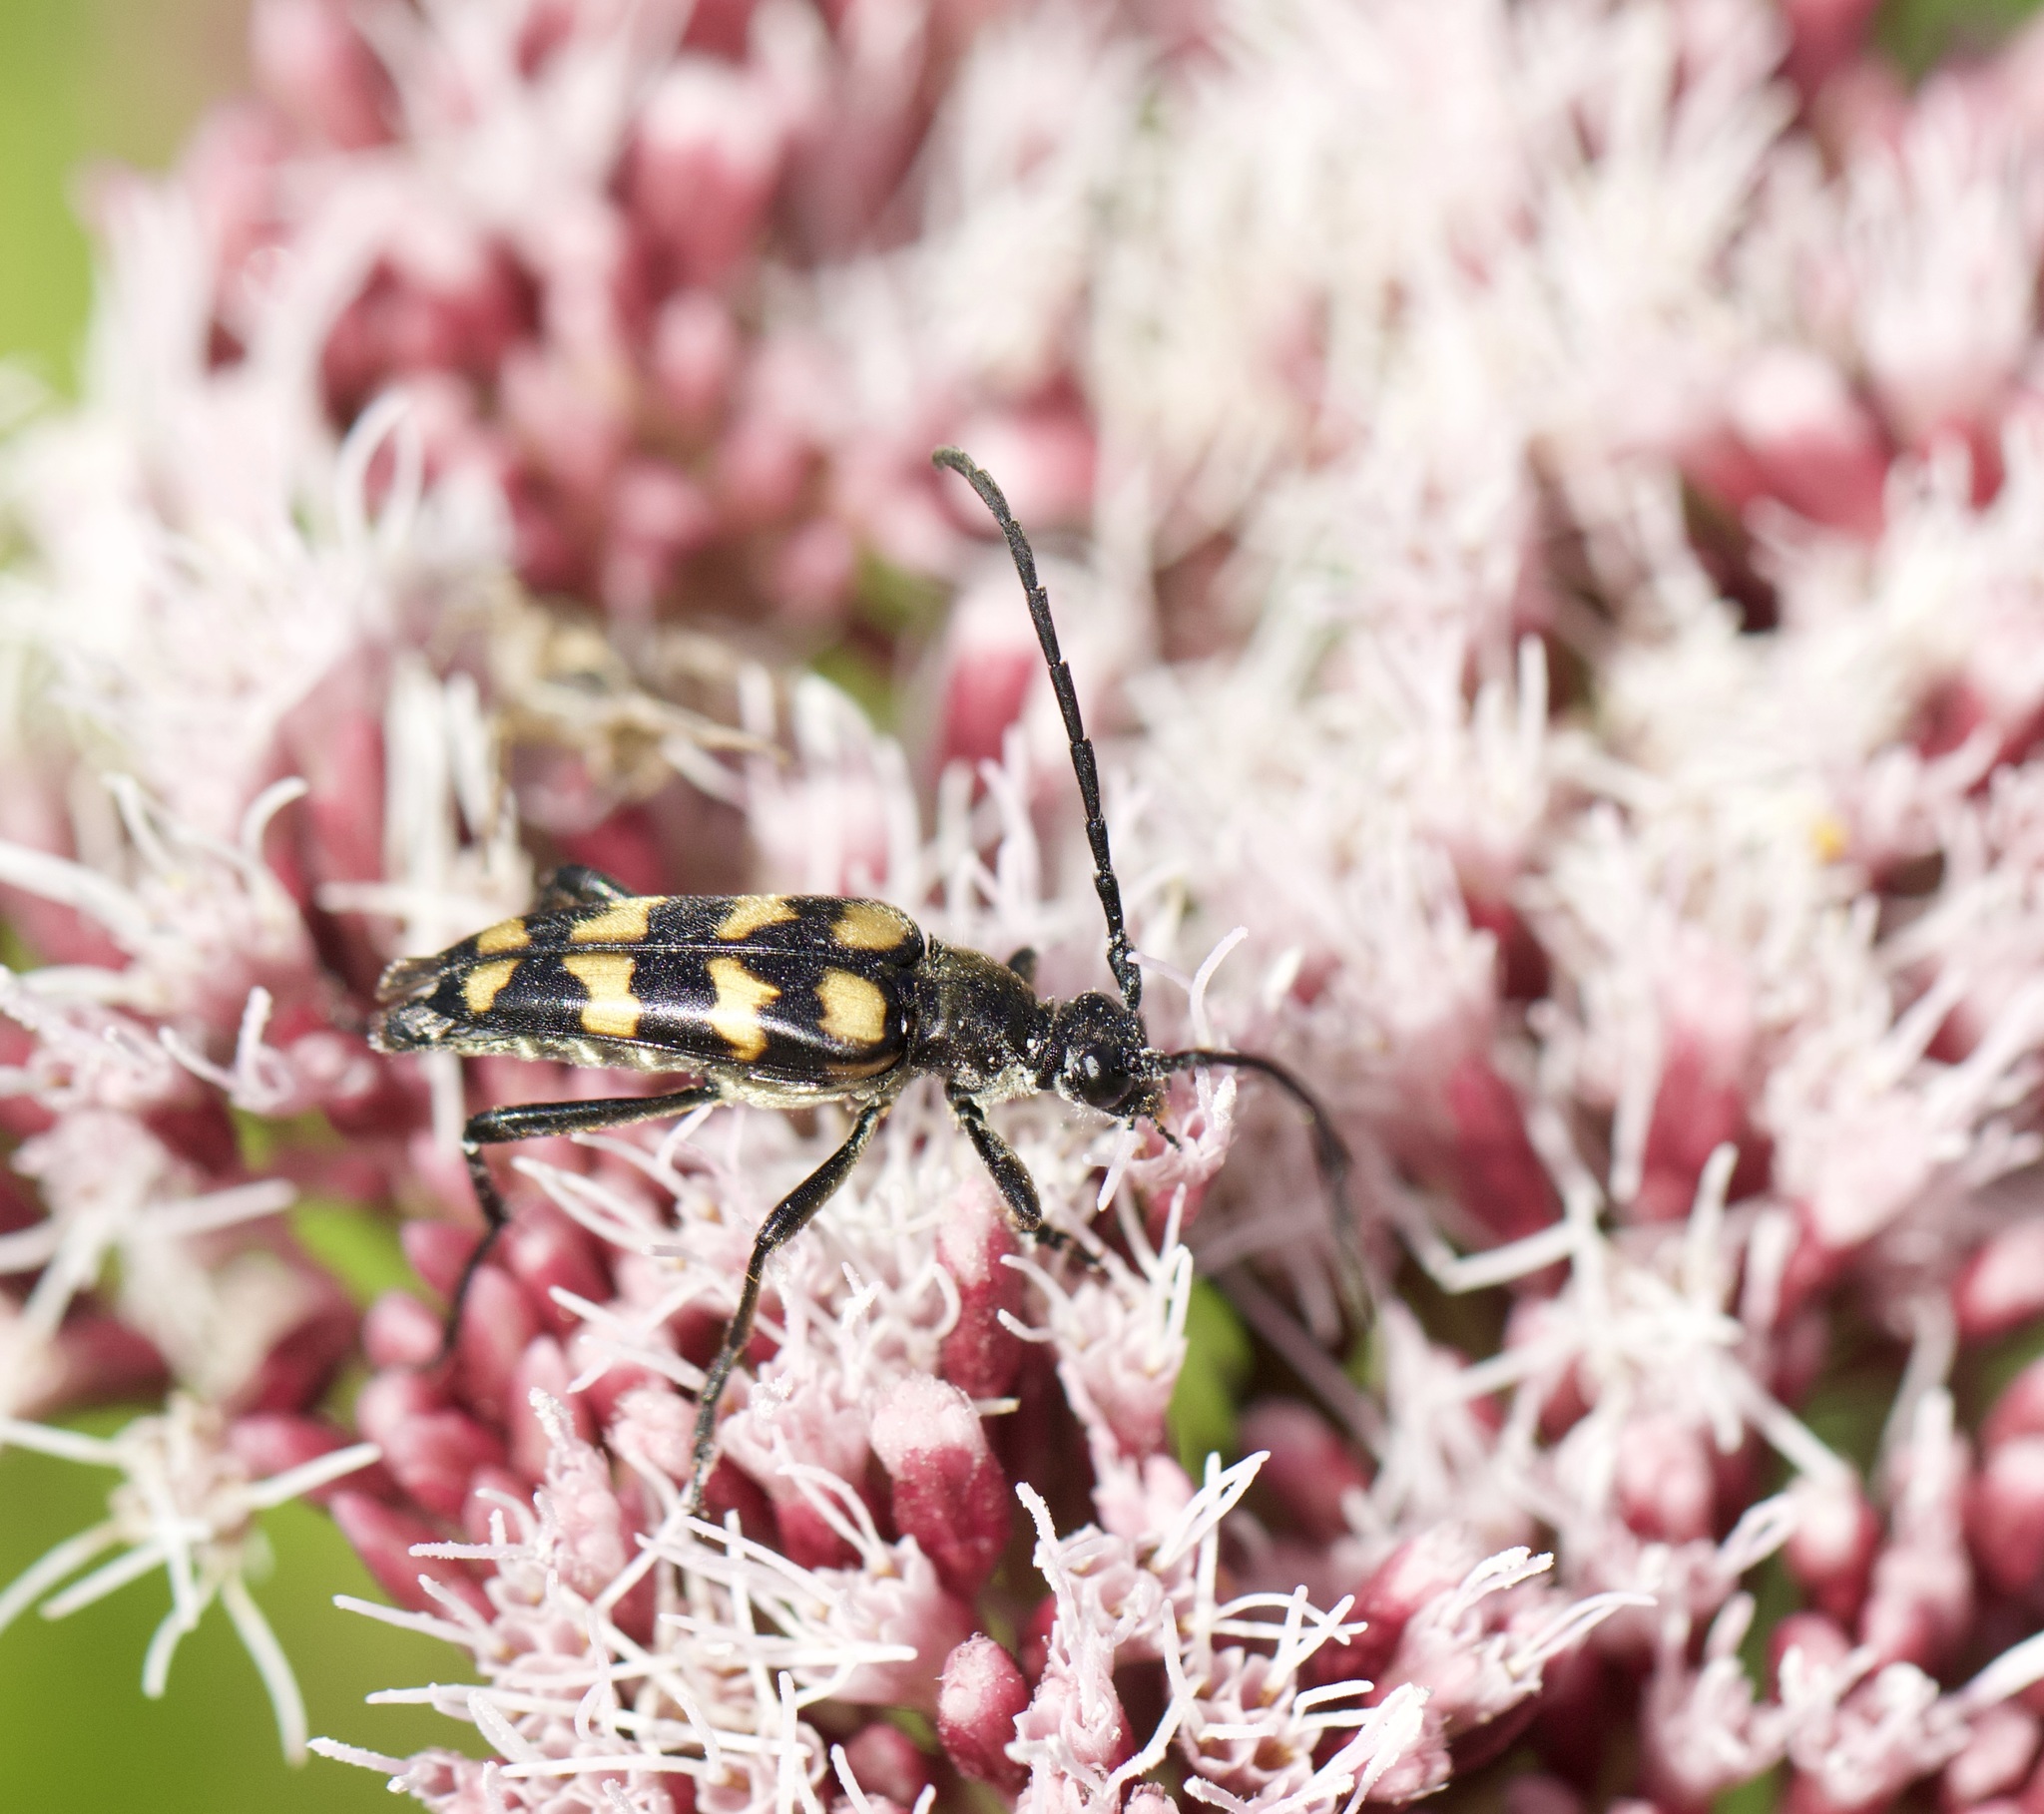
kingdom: Animalia
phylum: Arthropoda
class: Insecta
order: Coleoptera
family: Cerambycidae
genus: Leptura
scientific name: Leptura quadrifasciata
